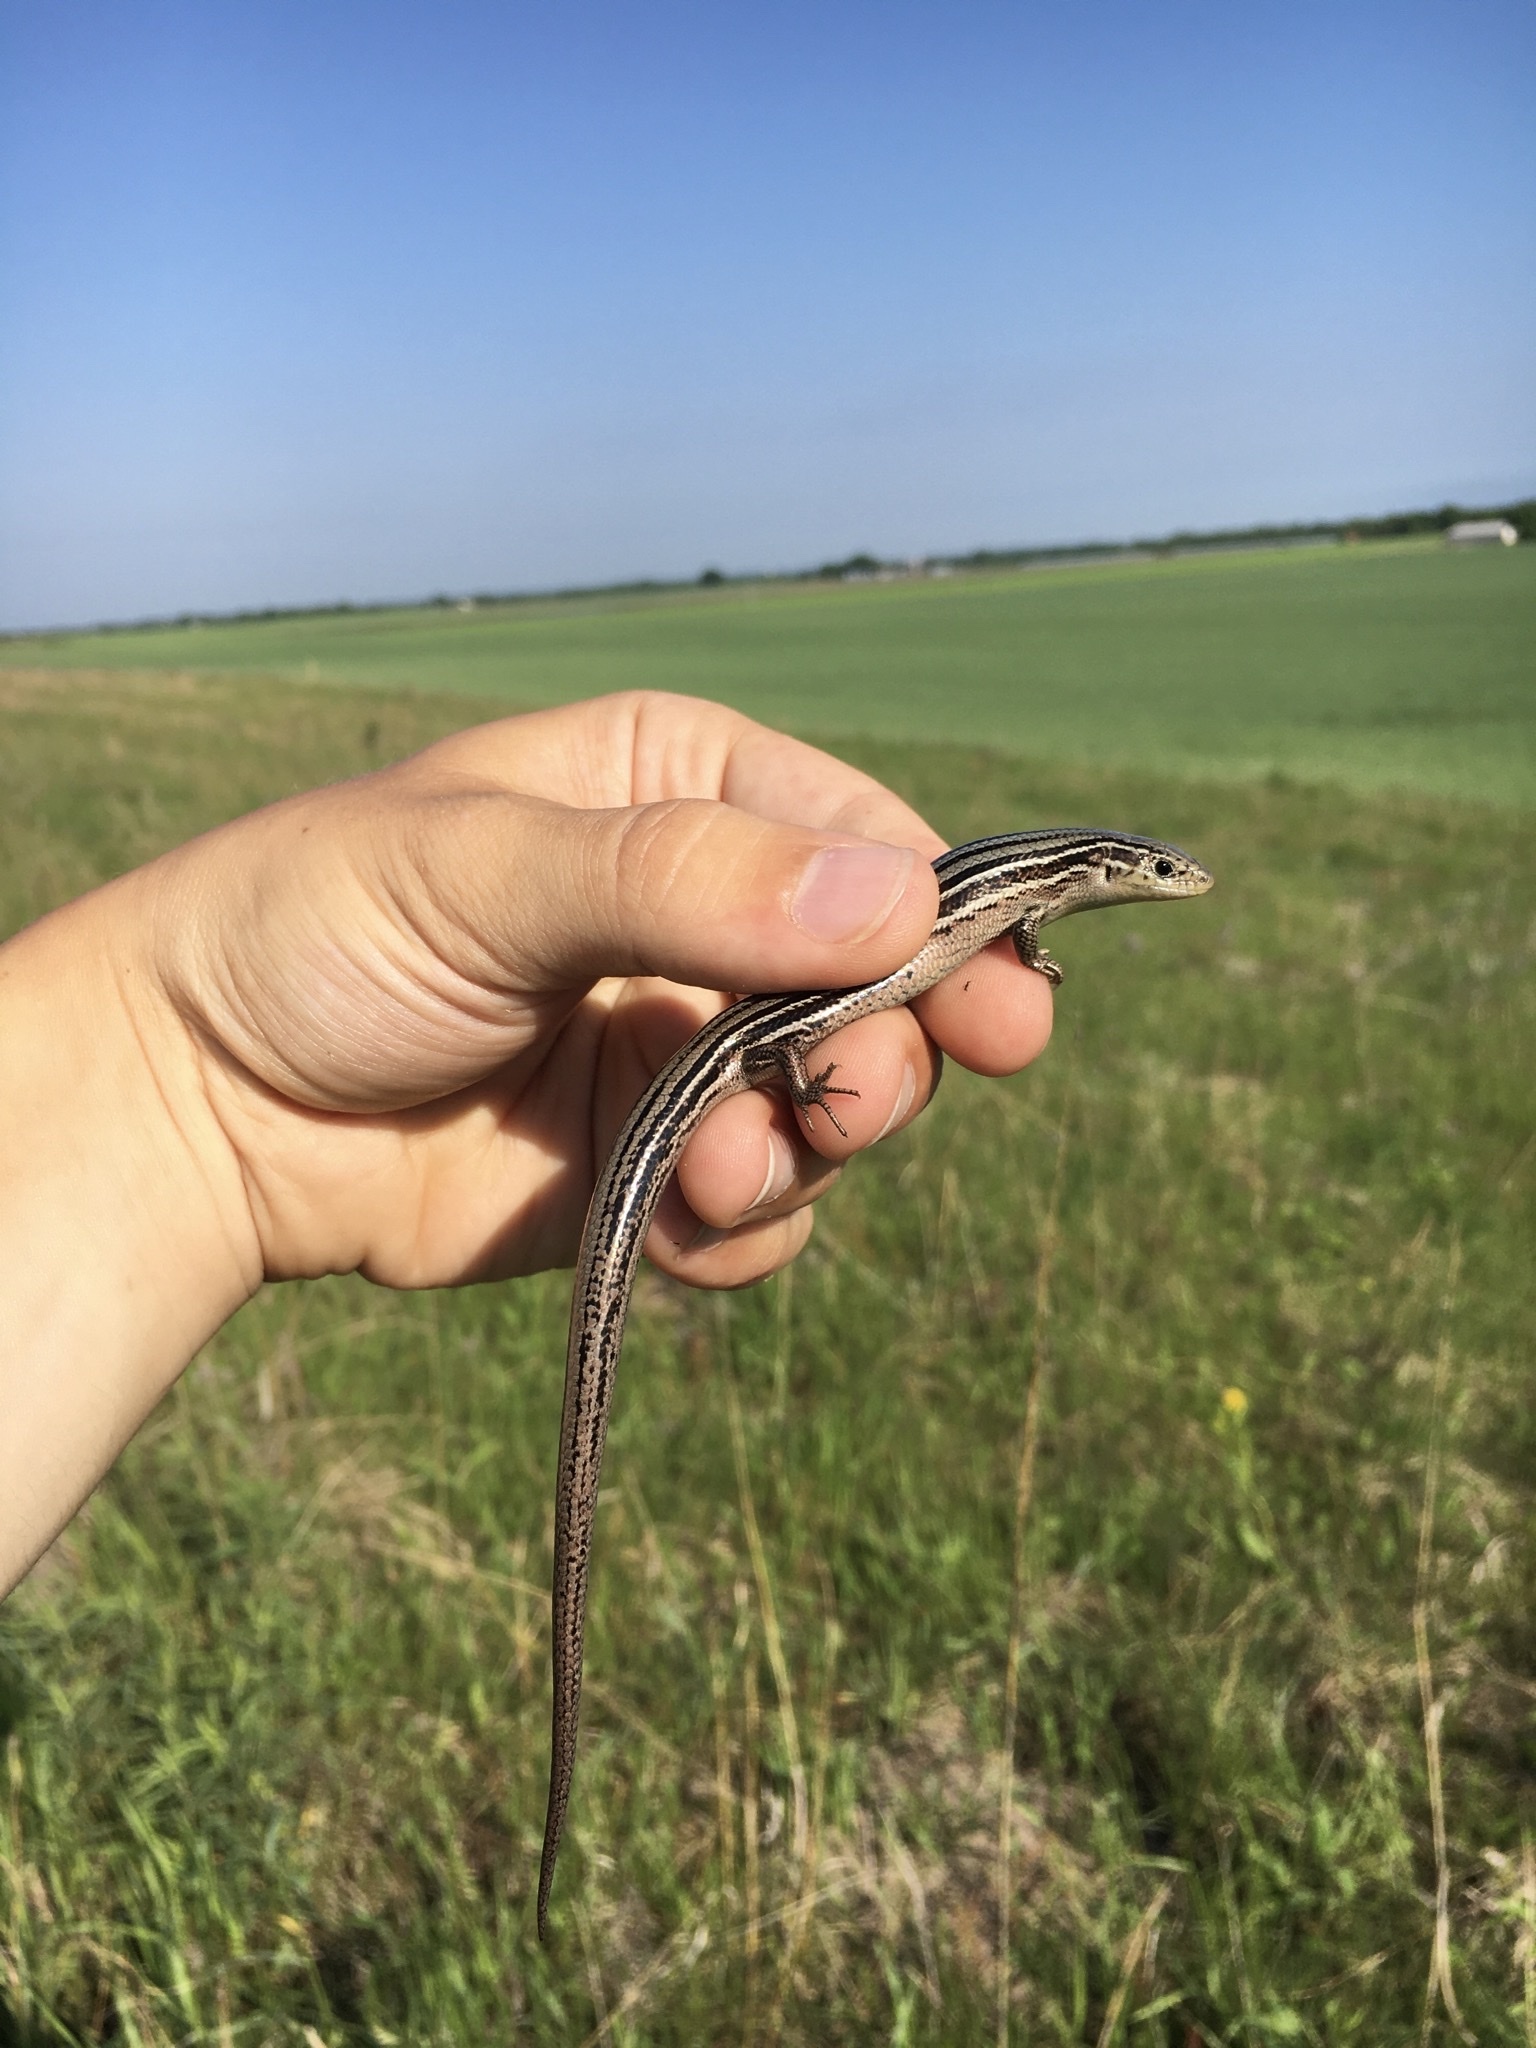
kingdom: Animalia
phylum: Chordata
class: Squamata
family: Scincidae
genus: Plestiodon
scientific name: Plestiodon septentrionalis
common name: Northern prairie skink
